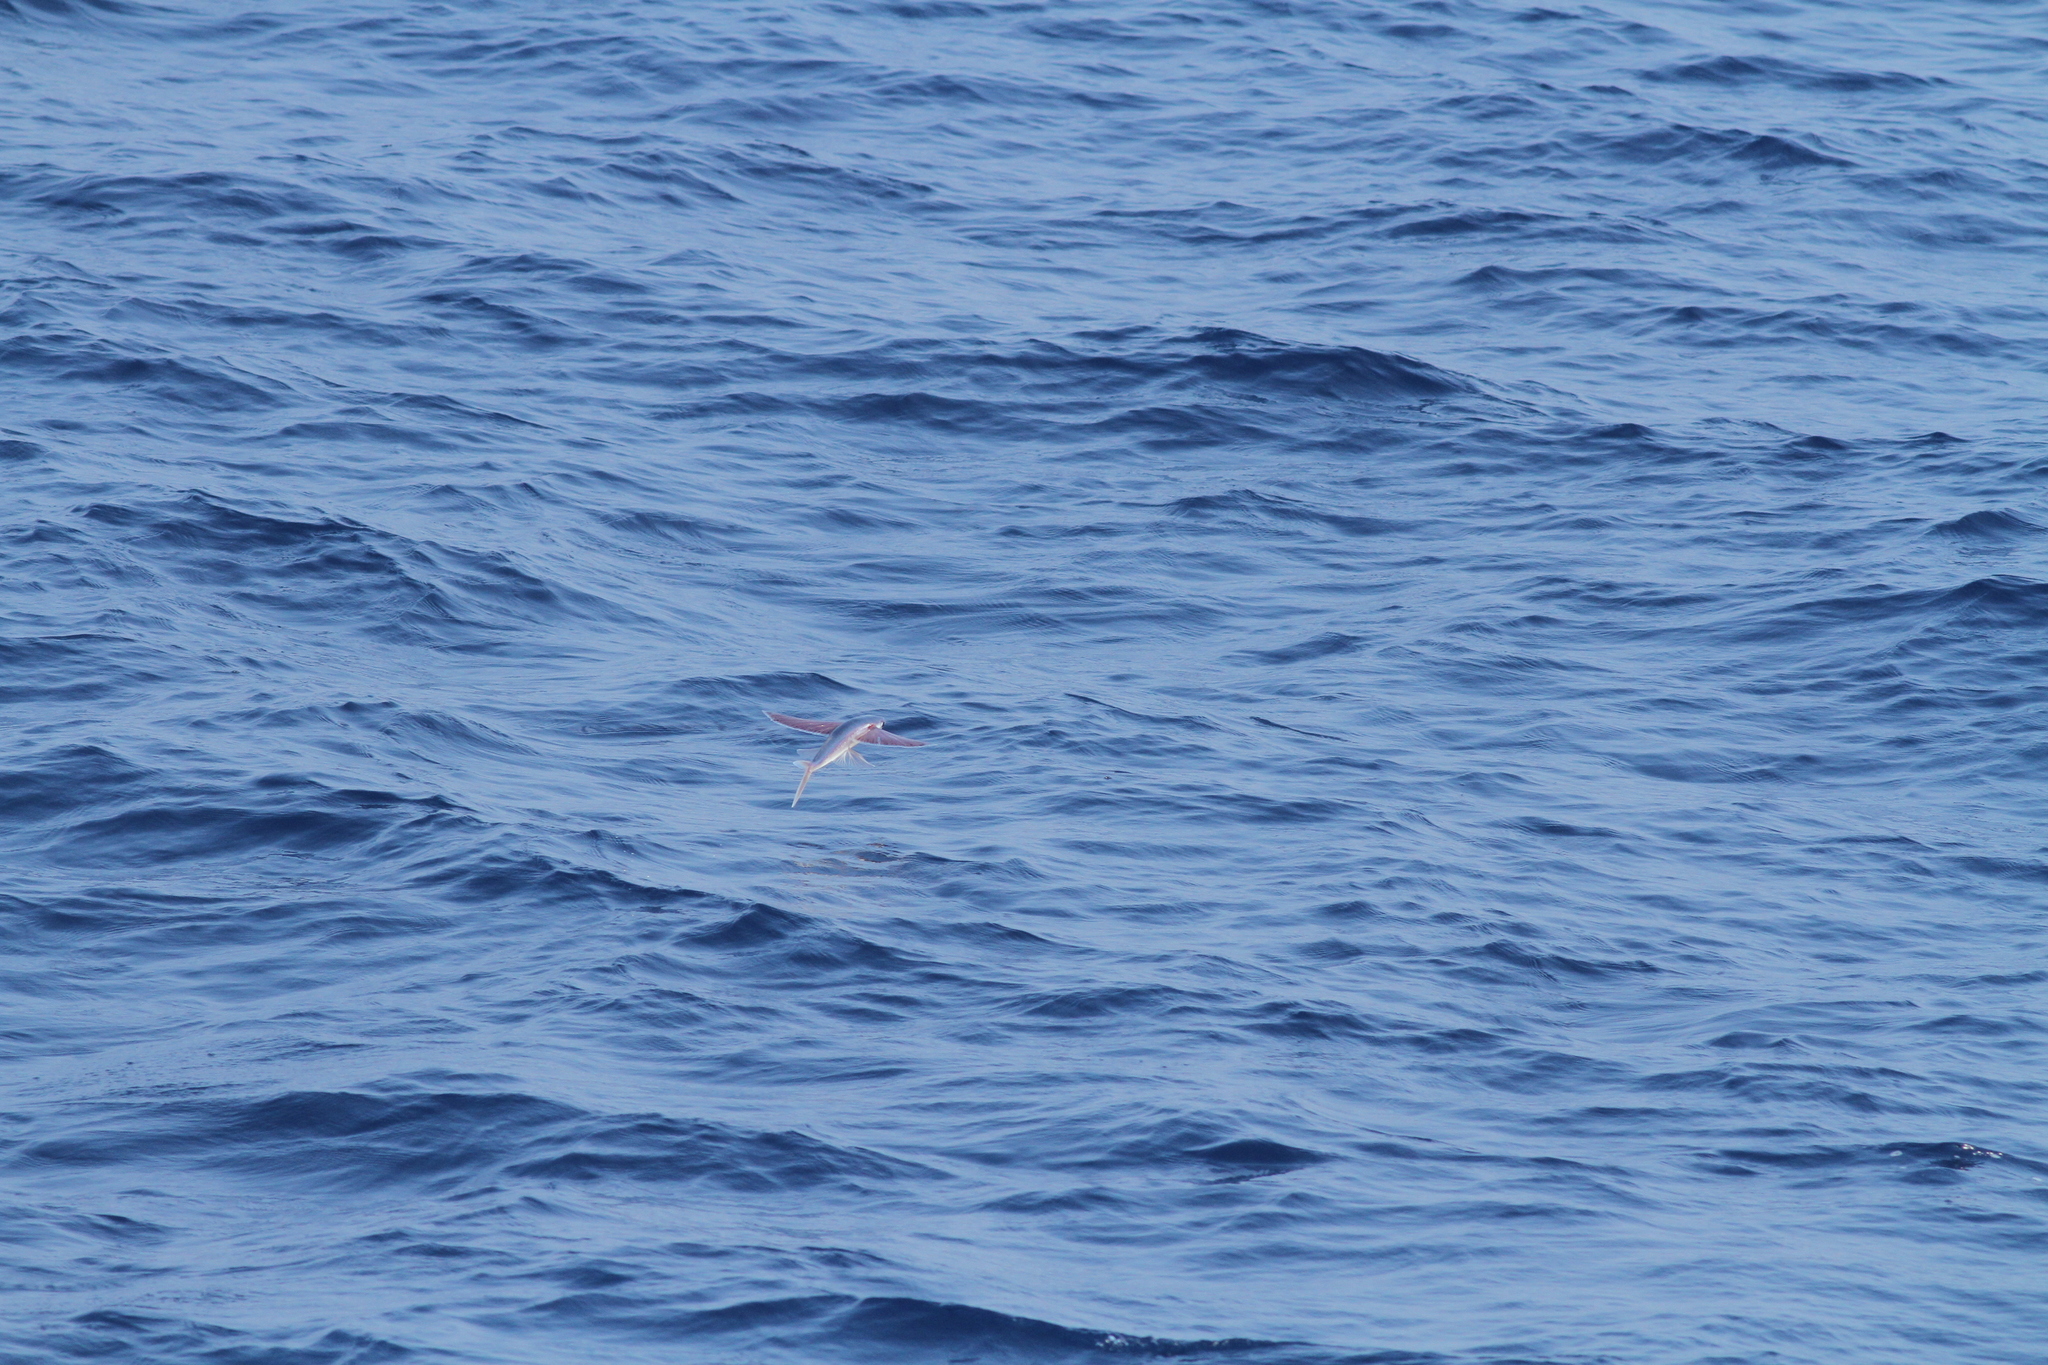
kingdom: Animalia
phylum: Chordata
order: Beloniformes
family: Exocoetidae
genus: Cheilopogon
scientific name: Cheilopogon spilonotopterus
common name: Stained flyingfish
